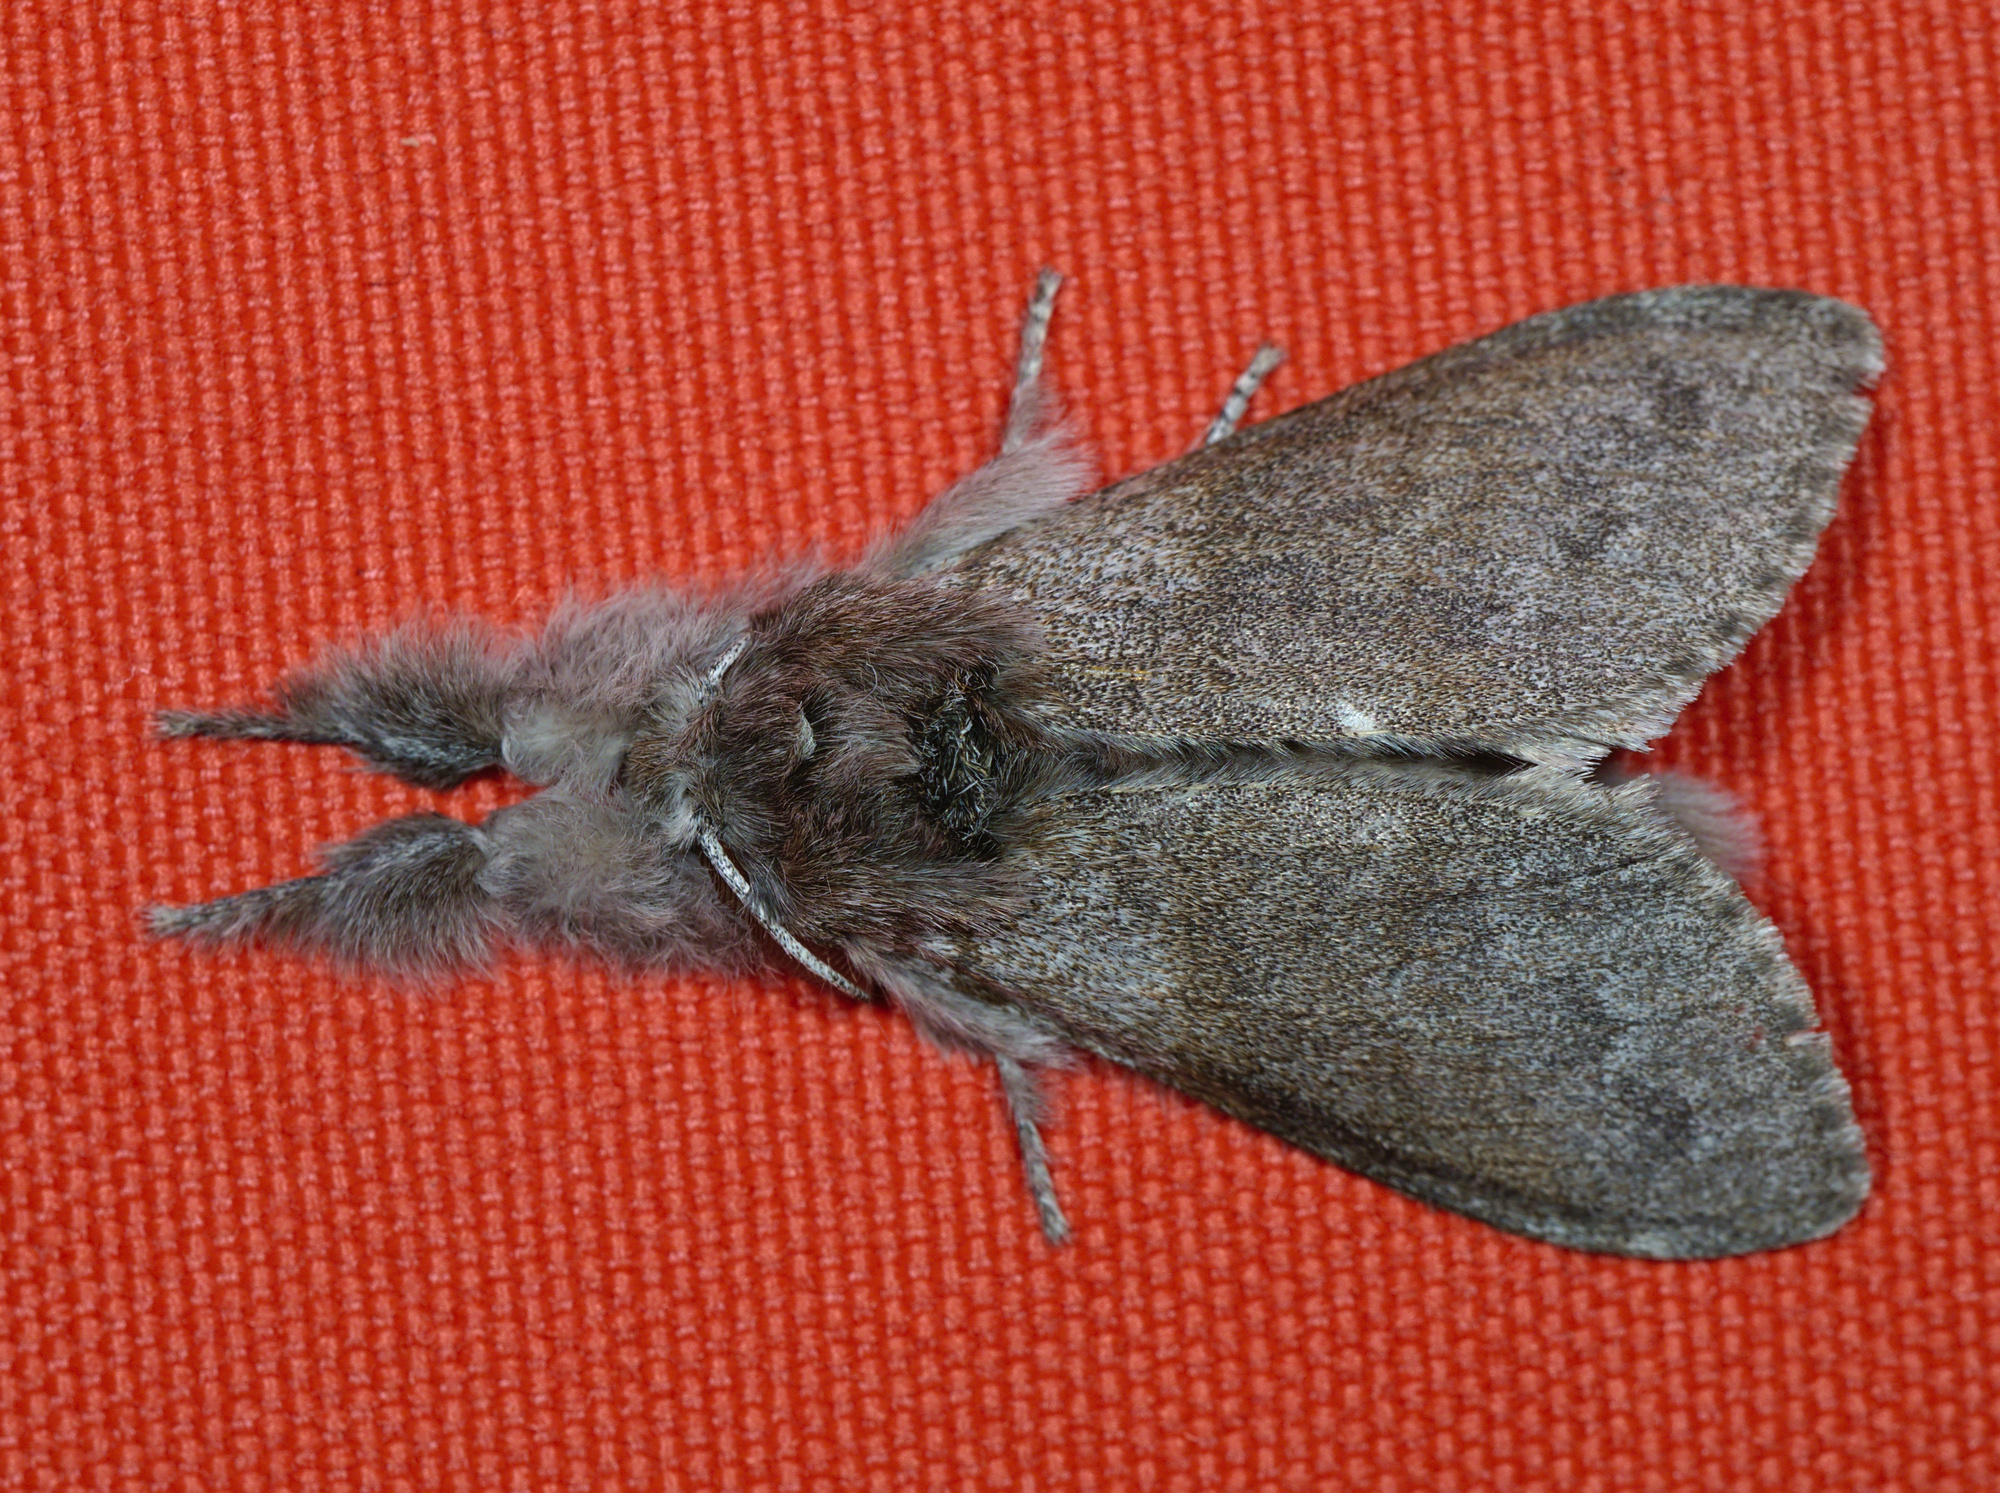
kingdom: Animalia
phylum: Arthropoda
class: Insecta
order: Lepidoptera
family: Erebidae
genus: Calliteara
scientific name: Calliteara pudibunda
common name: Pale tussock
